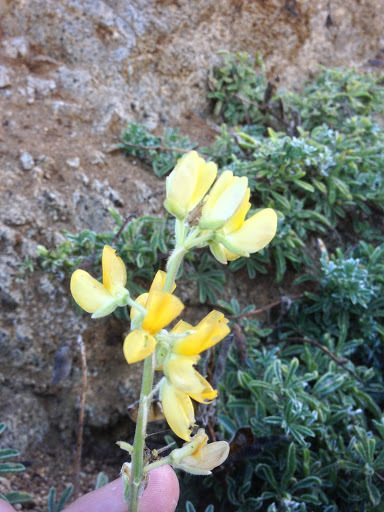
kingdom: Plantae
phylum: Tracheophyta
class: Magnoliopsida
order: Fabales
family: Fabaceae
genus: Lupinus
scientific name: Lupinus arboreus
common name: Yellow bush lupine
